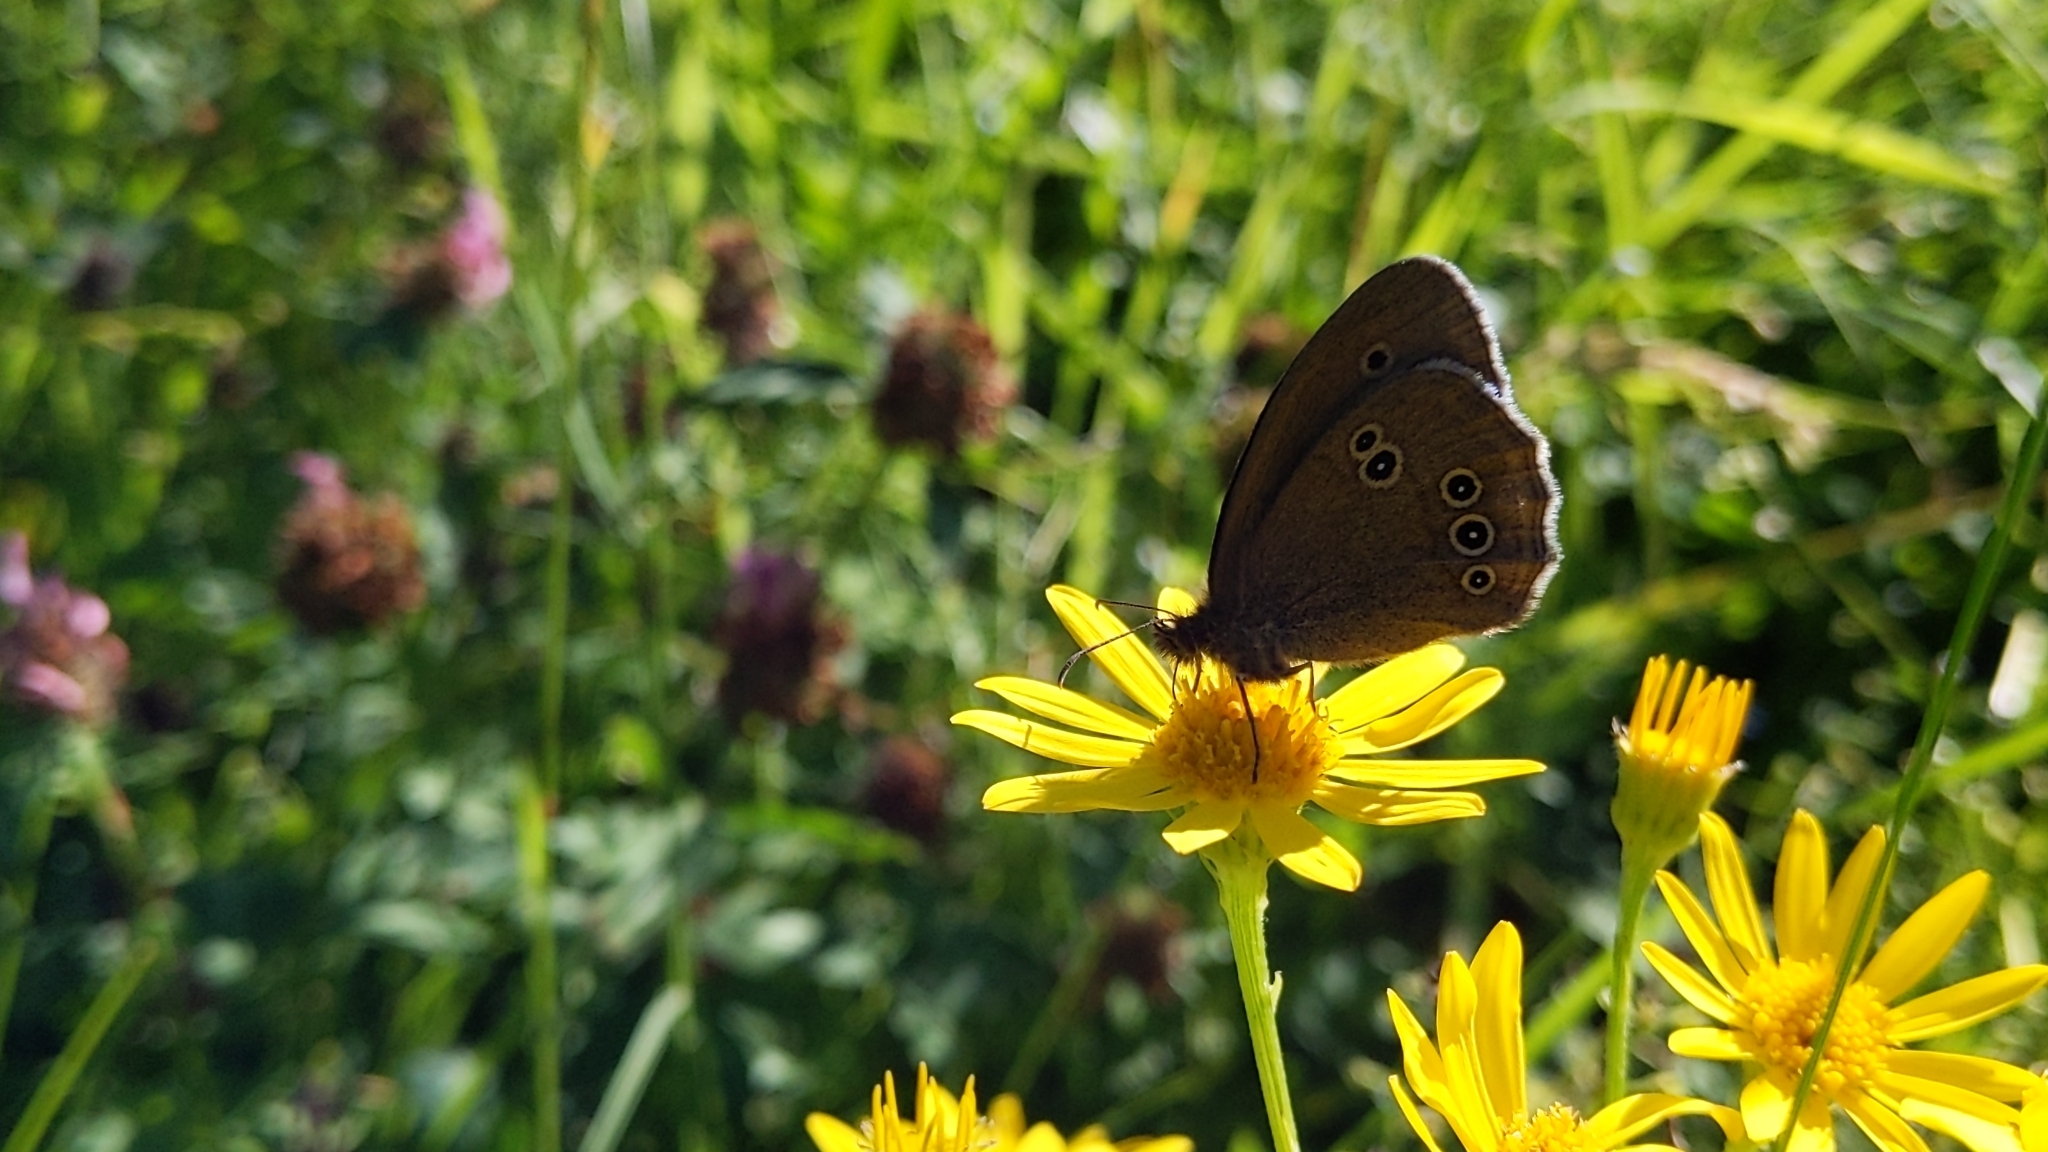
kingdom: Animalia
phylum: Arthropoda
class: Insecta
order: Lepidoptera
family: Nymphalidae
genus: Aphantopus
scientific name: Aphantopus hyperantus
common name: Ringlet
